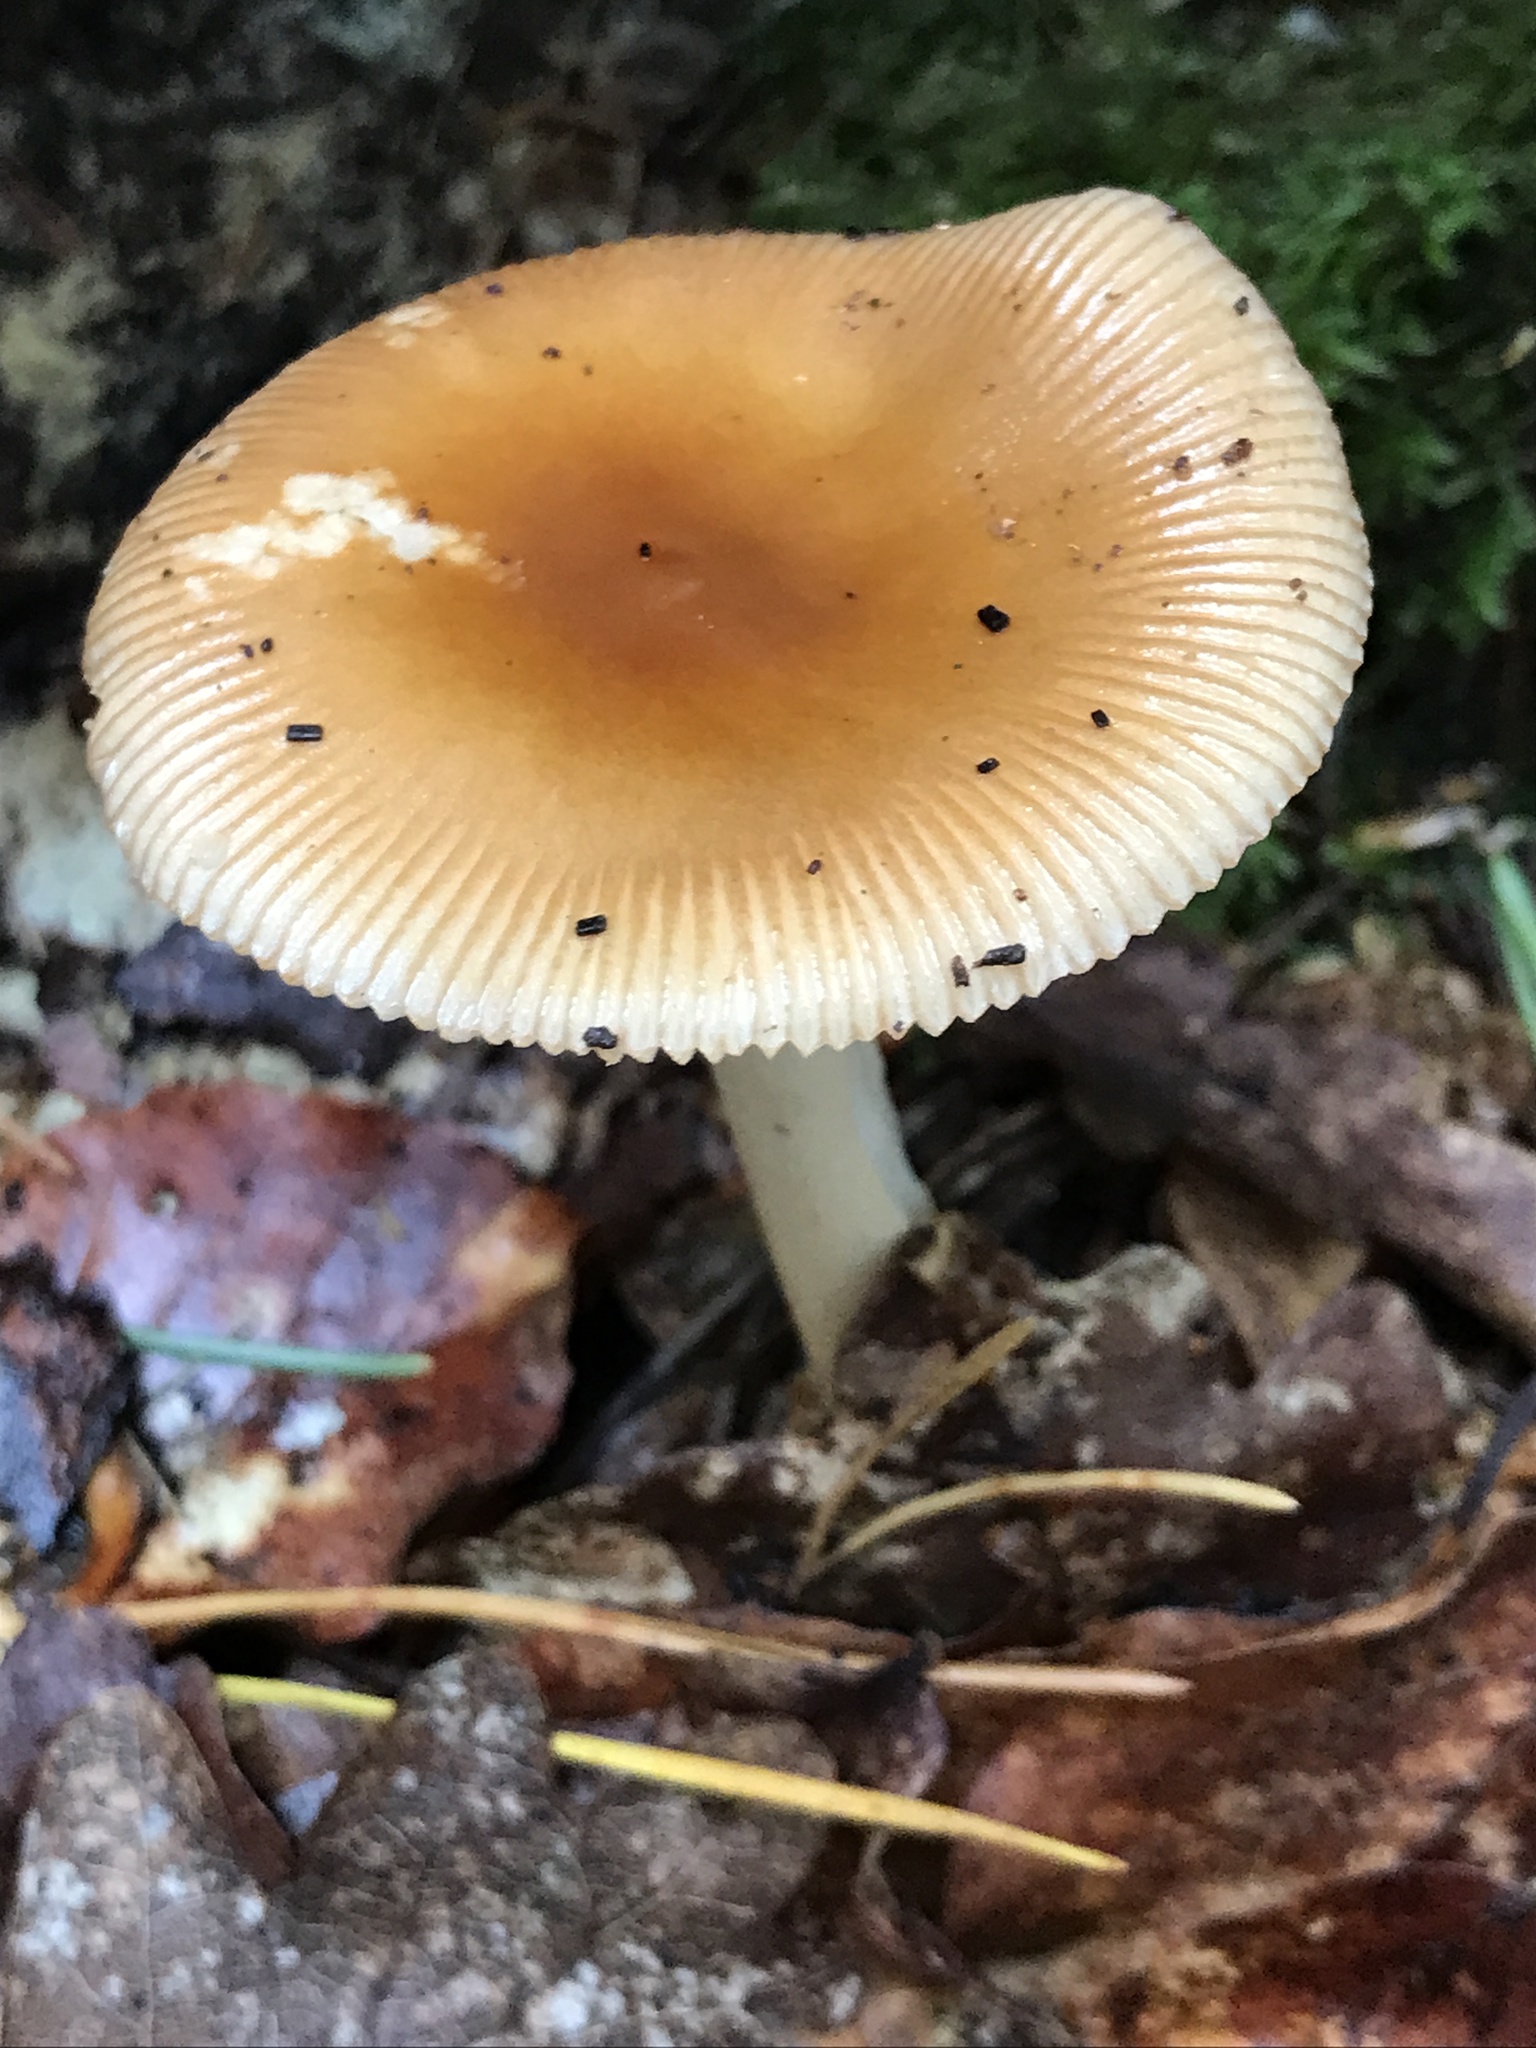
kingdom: Fungi
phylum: Basidiomycota
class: Agaricomycetes
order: Agaricales
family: Amanitaceae
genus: Amanita
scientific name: Amanita fulva
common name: Tawny grisette
